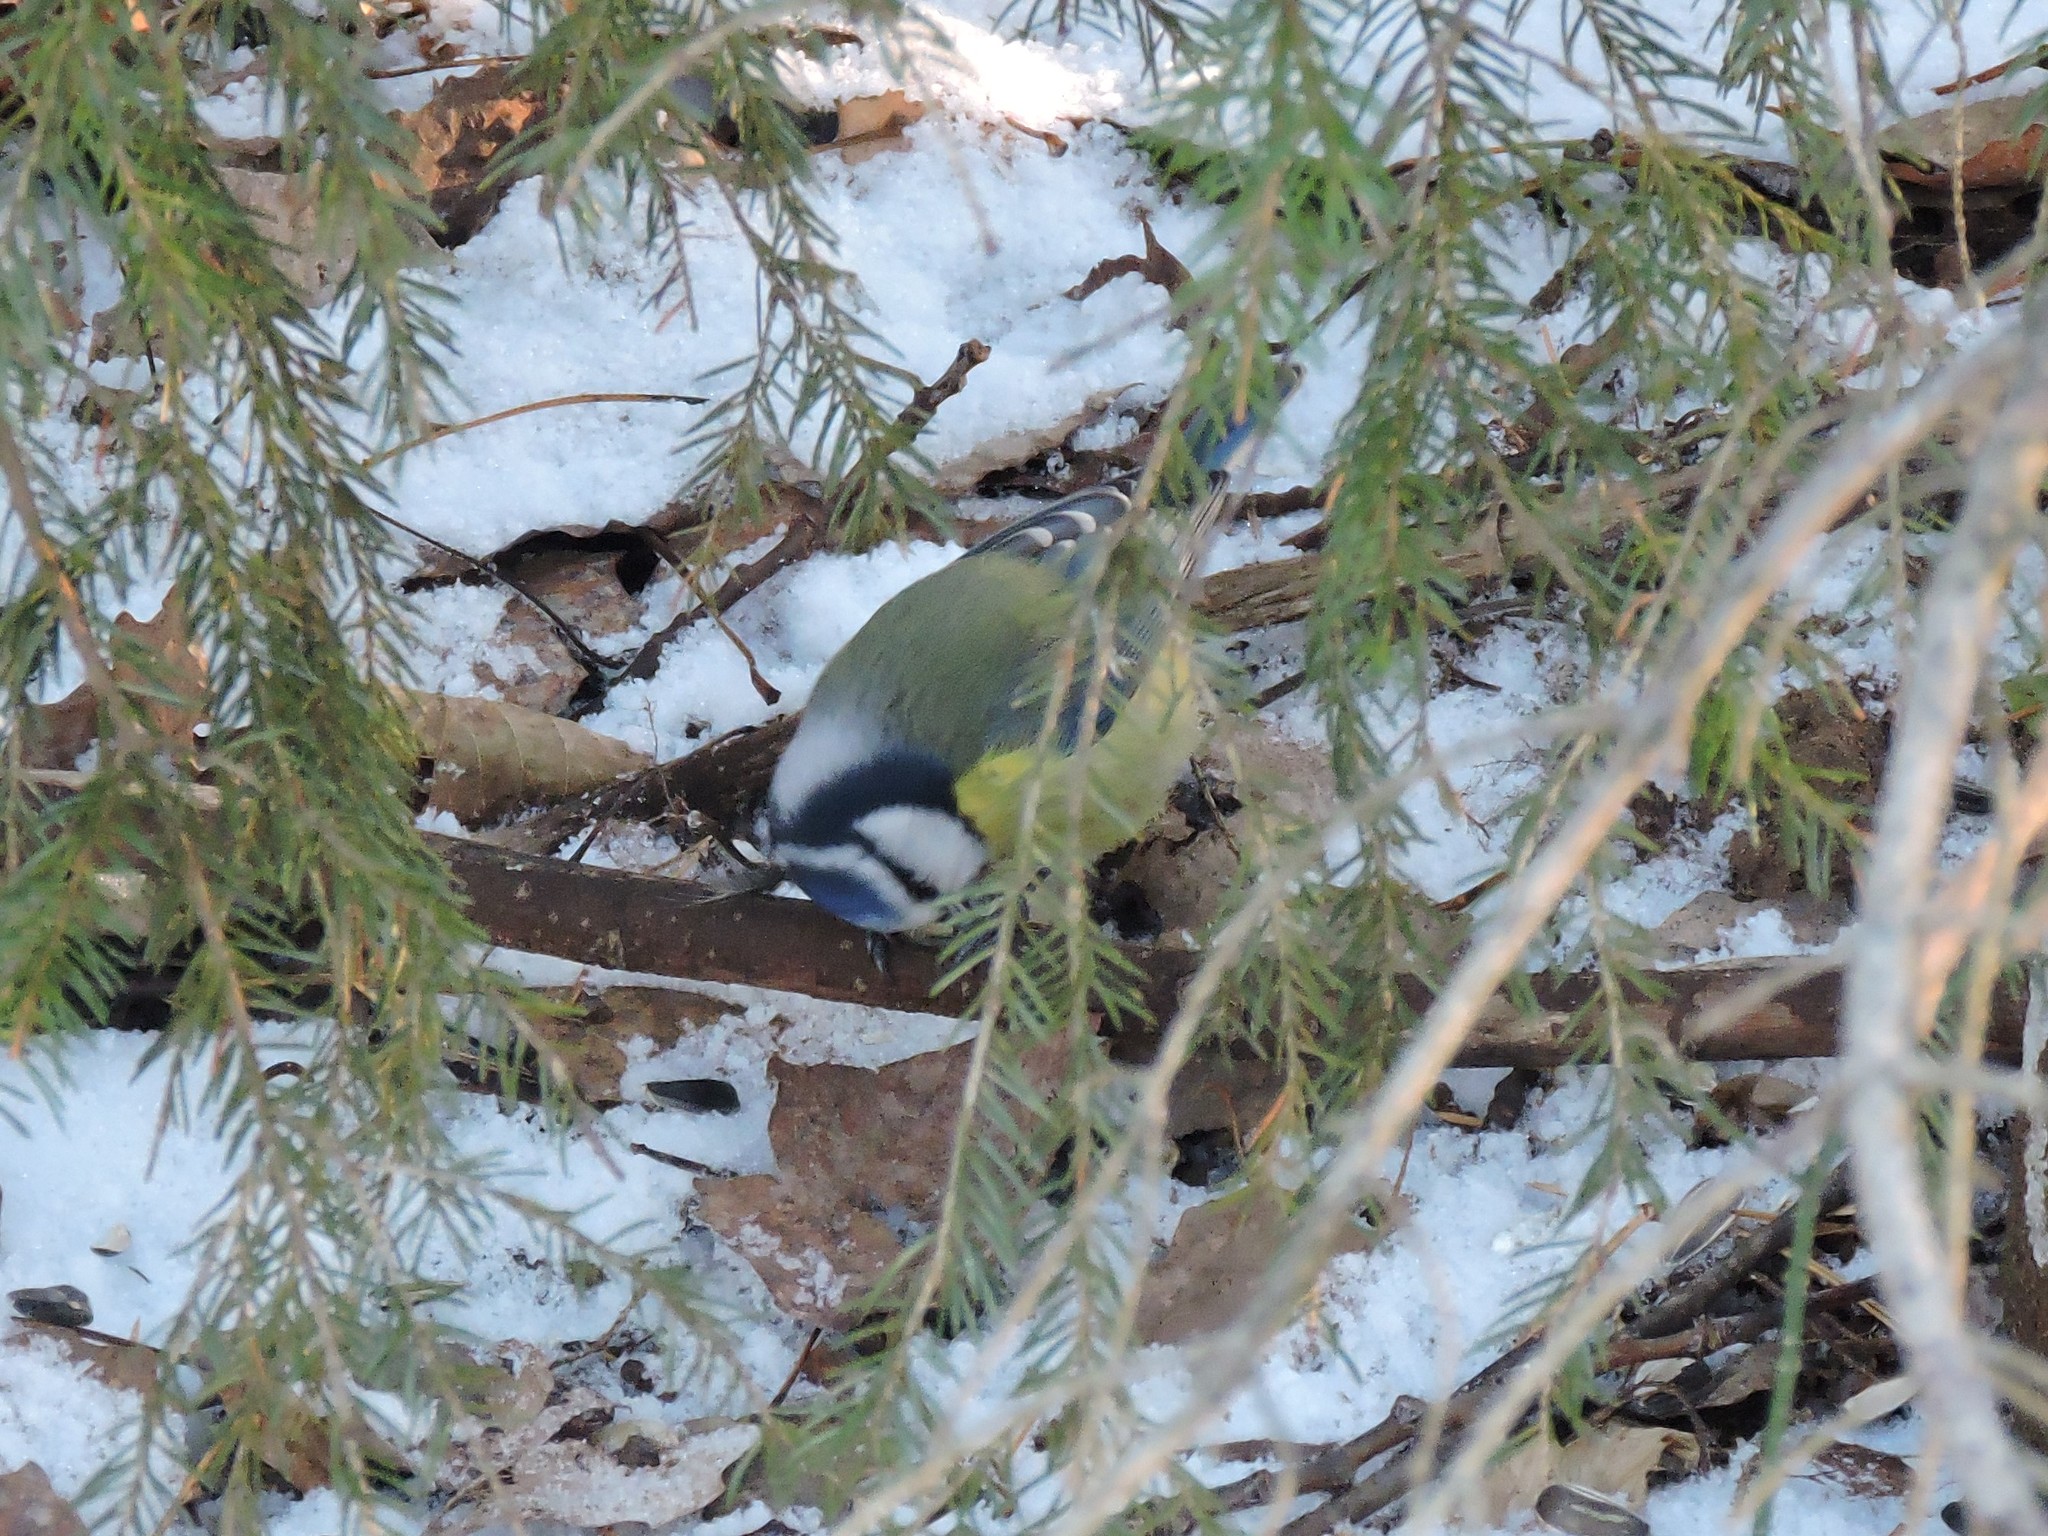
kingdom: Animalia
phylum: Chordata
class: Aves
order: Passeriformes
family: Paridae
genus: Cyanistes
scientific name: Cyanistes caeruleus
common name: Eurasian blue tit
